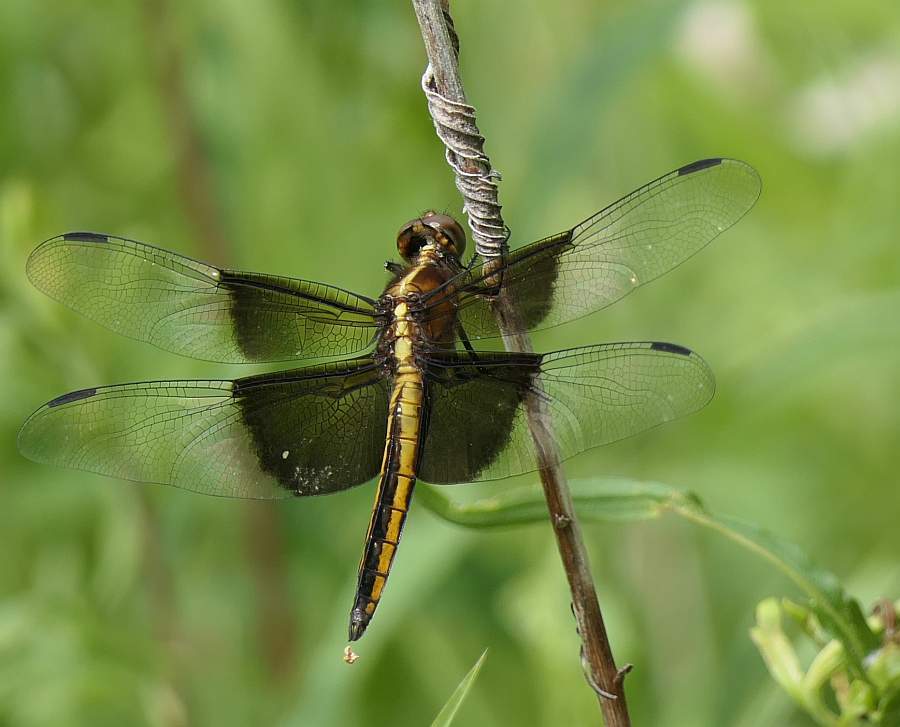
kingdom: Animalia
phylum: Arthropoda
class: Insecta
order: Odonata
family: Libellulidae
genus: Libellula
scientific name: Libellula luctuosa
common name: Widow skimmer
